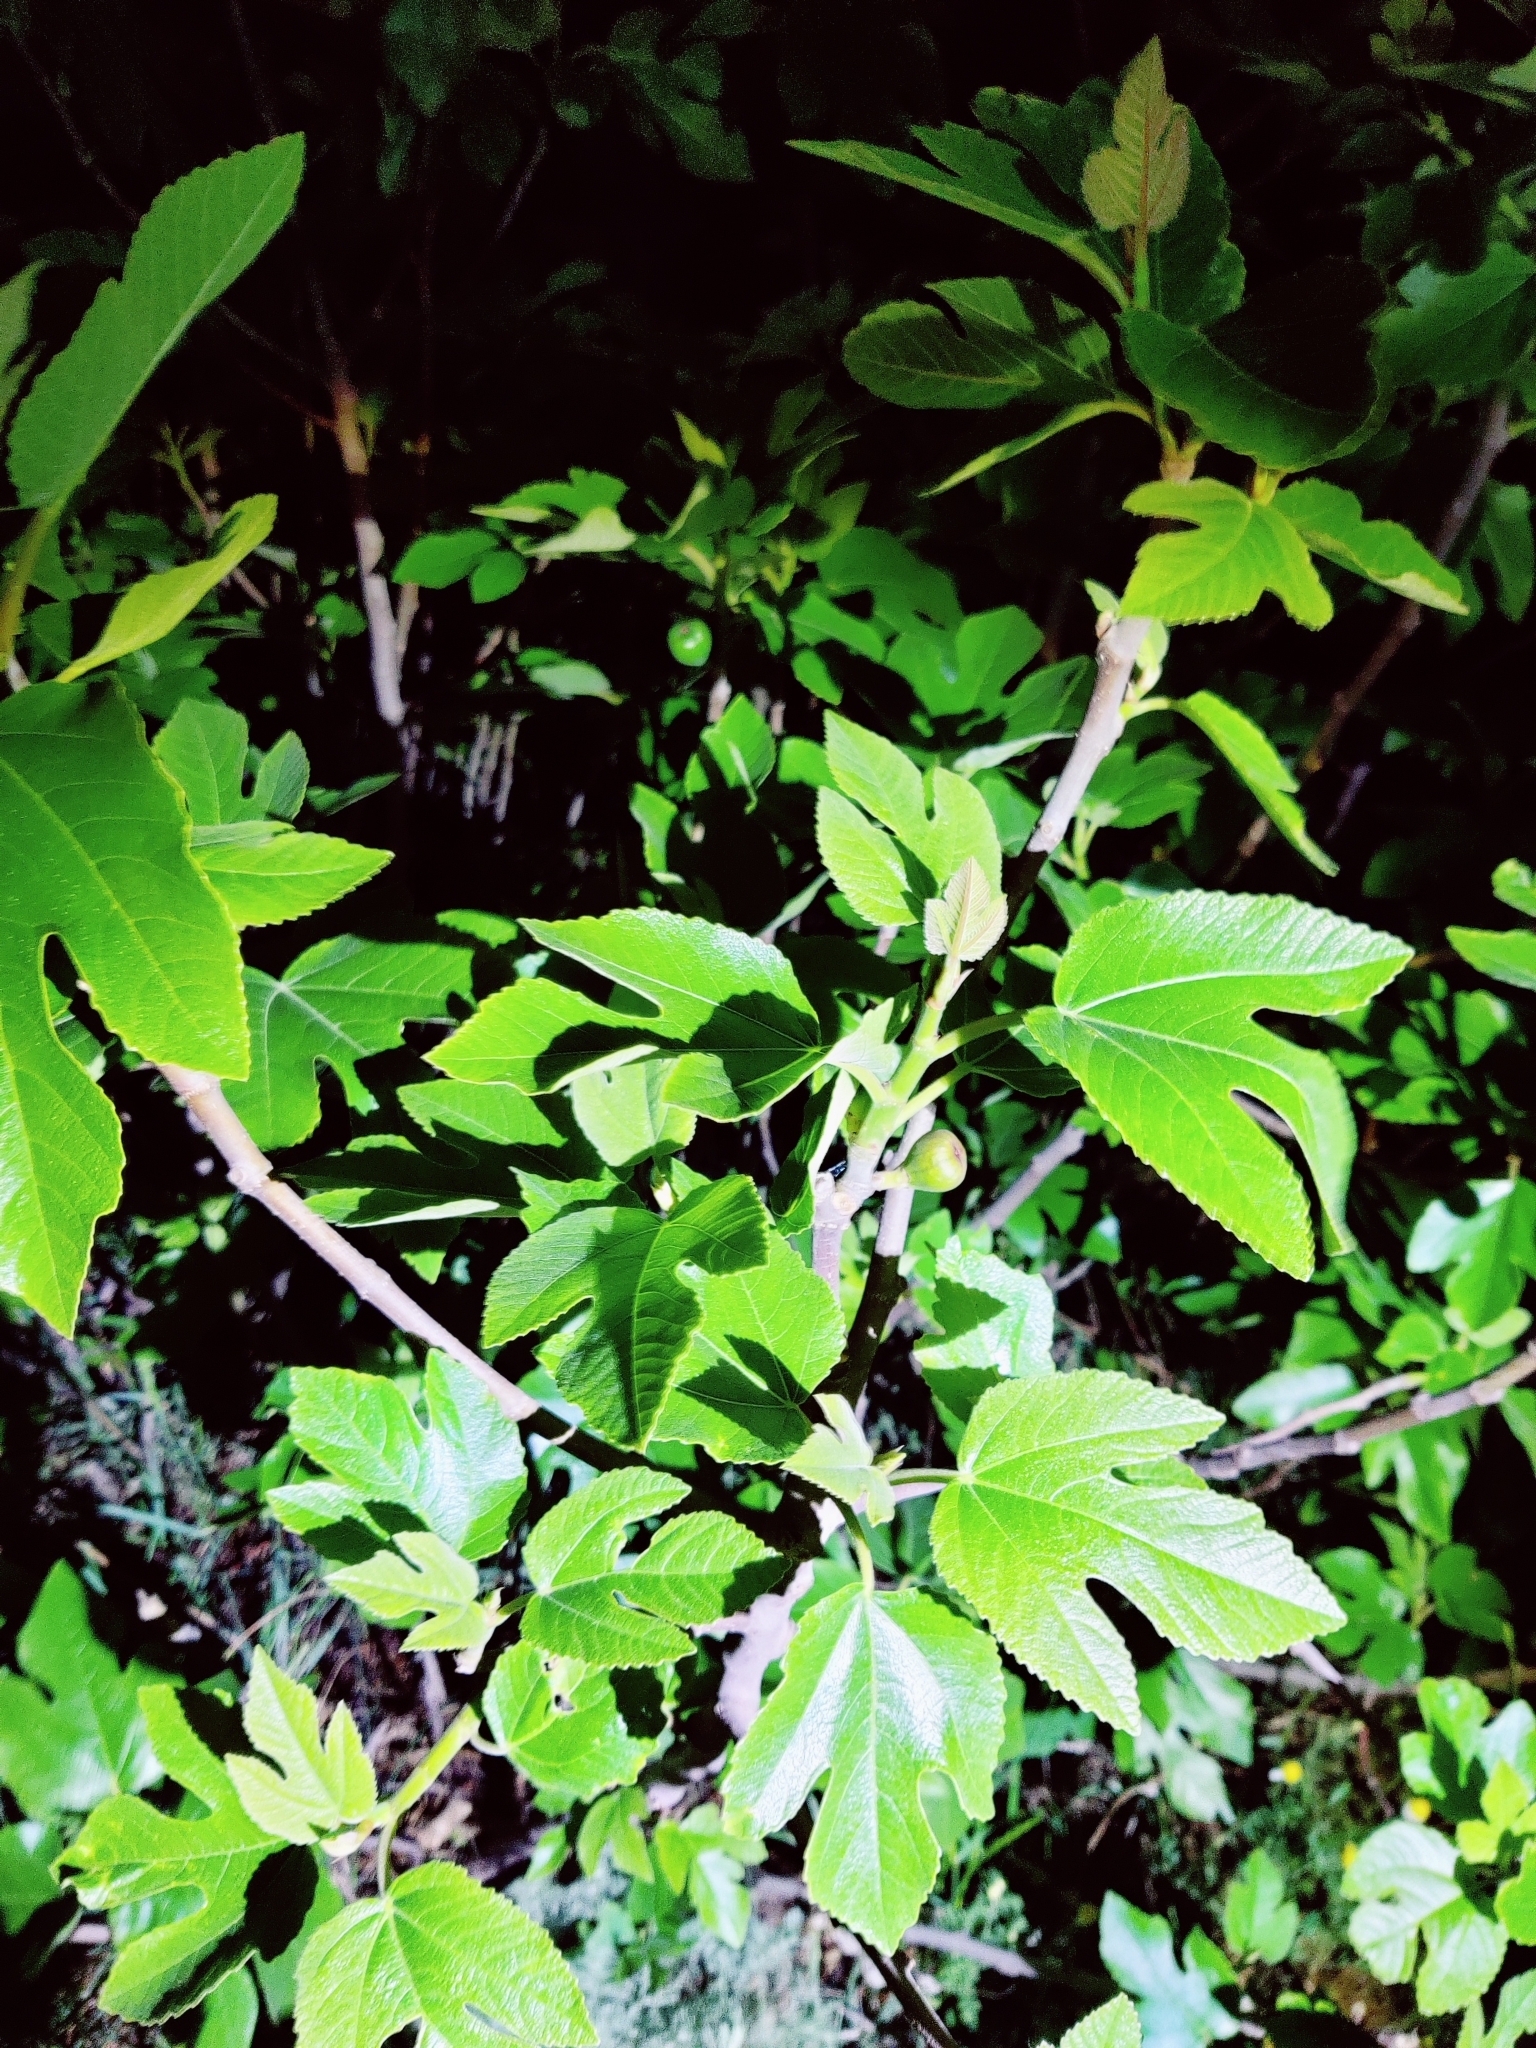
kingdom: Plantae
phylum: Tracheophyta
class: Magnoliopsida
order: Rosales
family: Moraceae
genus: Ficus
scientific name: Ficus carica
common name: Fig
